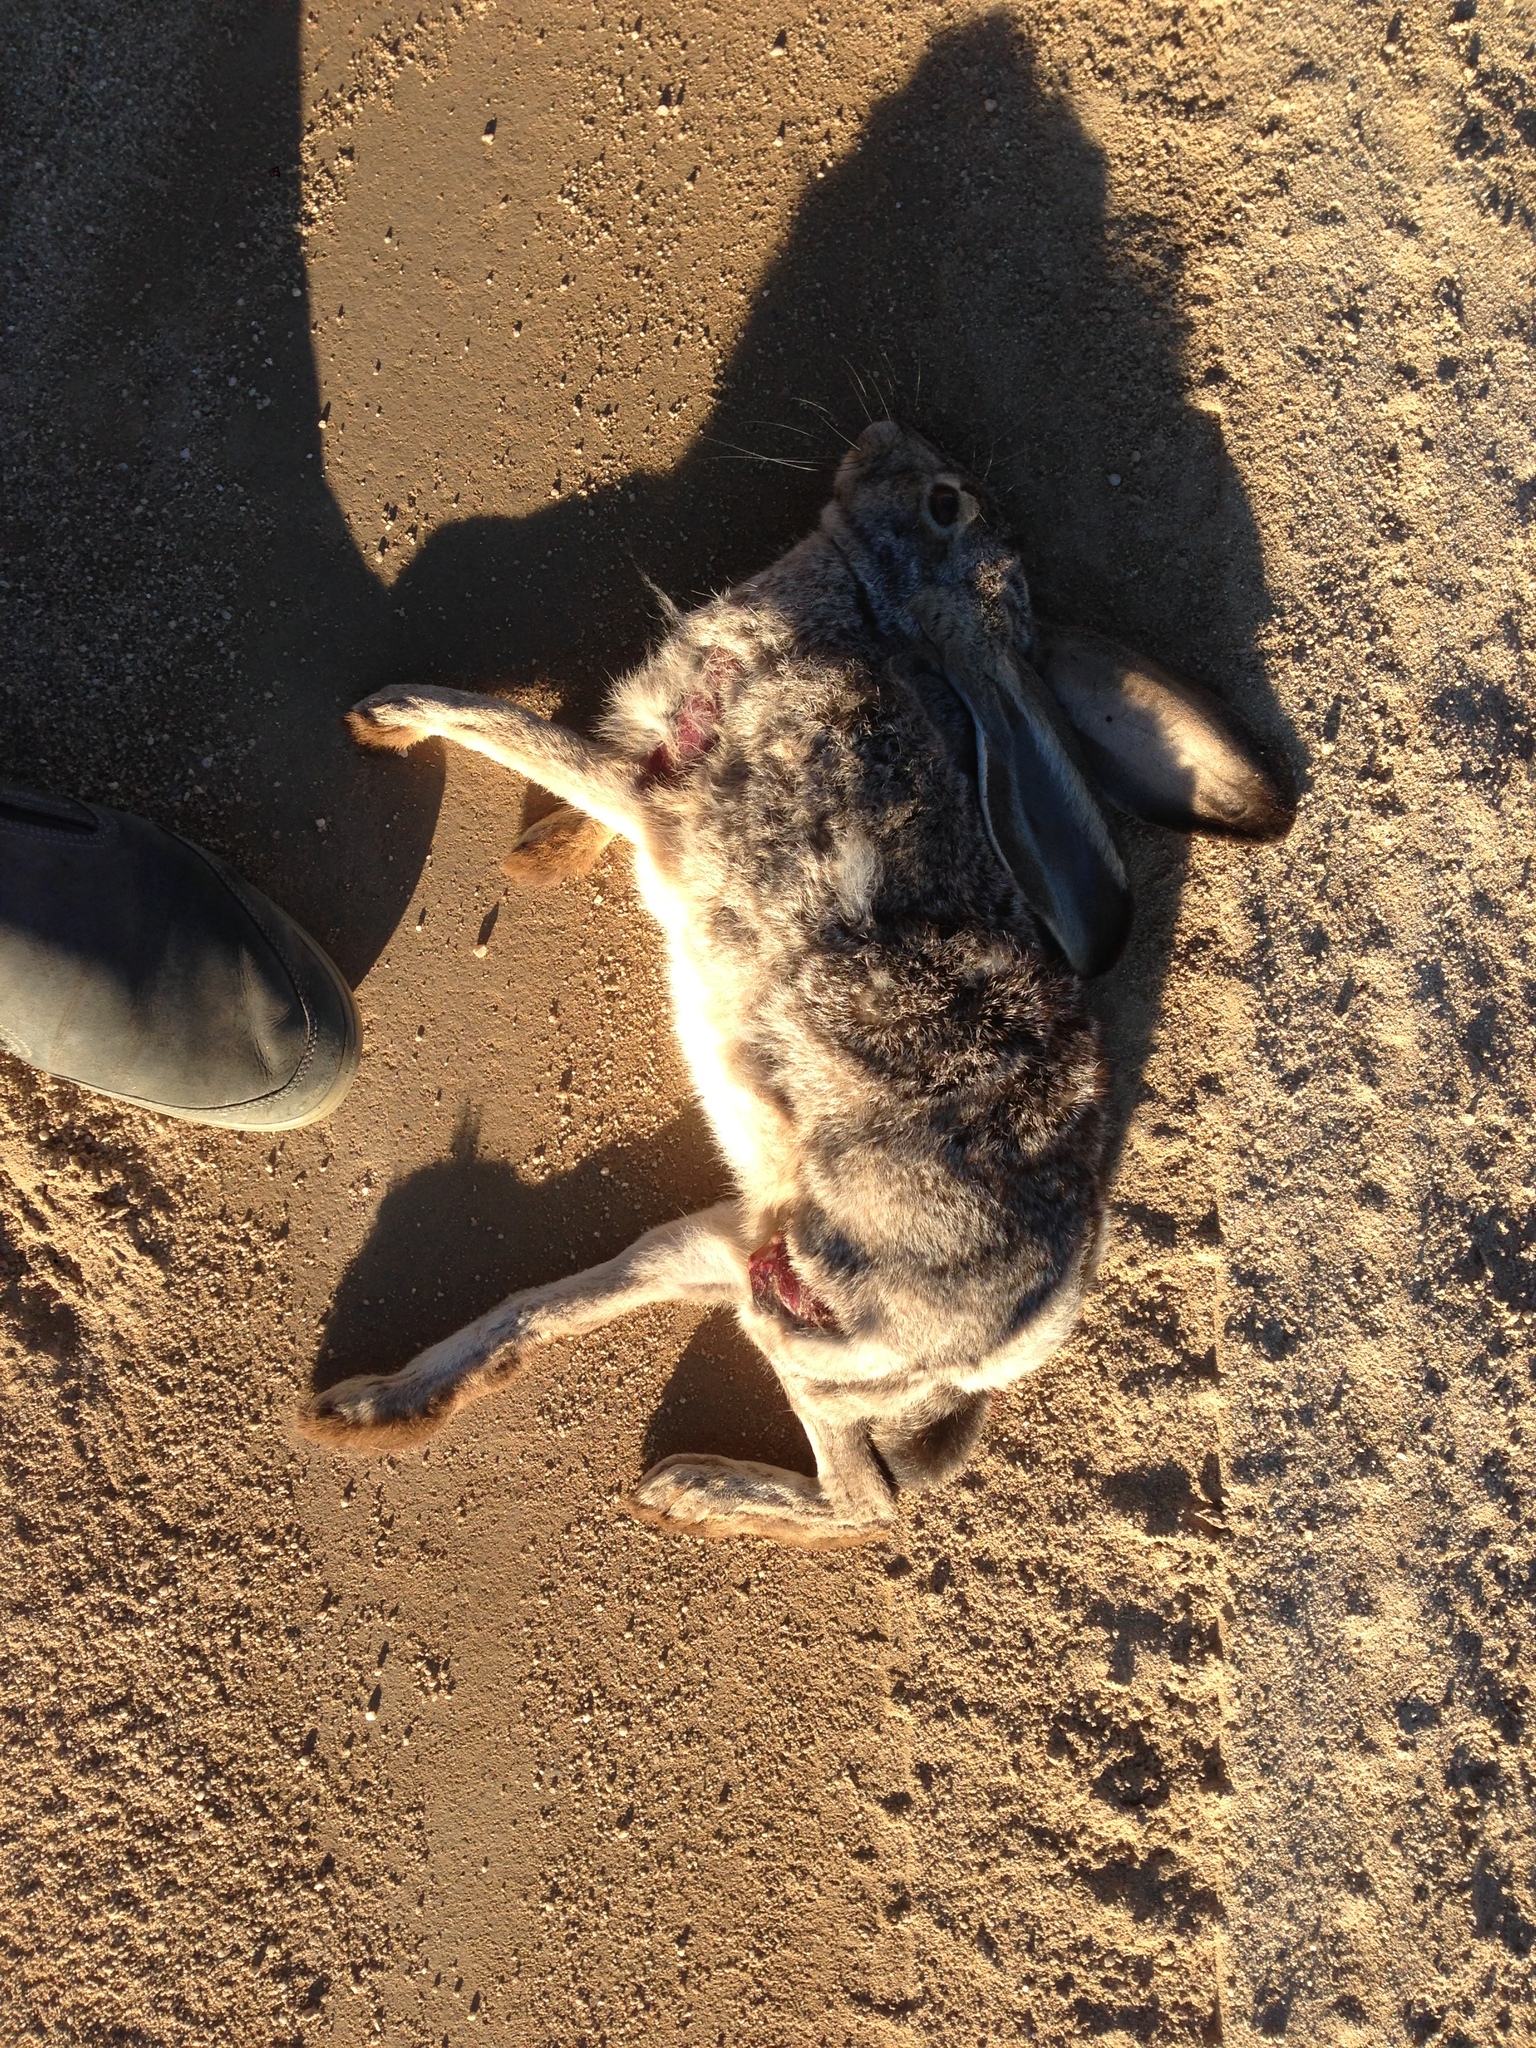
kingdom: Animalia
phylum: Chordata
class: Mammalia
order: Lagomorpha
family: Leporidae
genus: Lepus
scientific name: Lepus californicus
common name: Black-tailed jackrabbit
